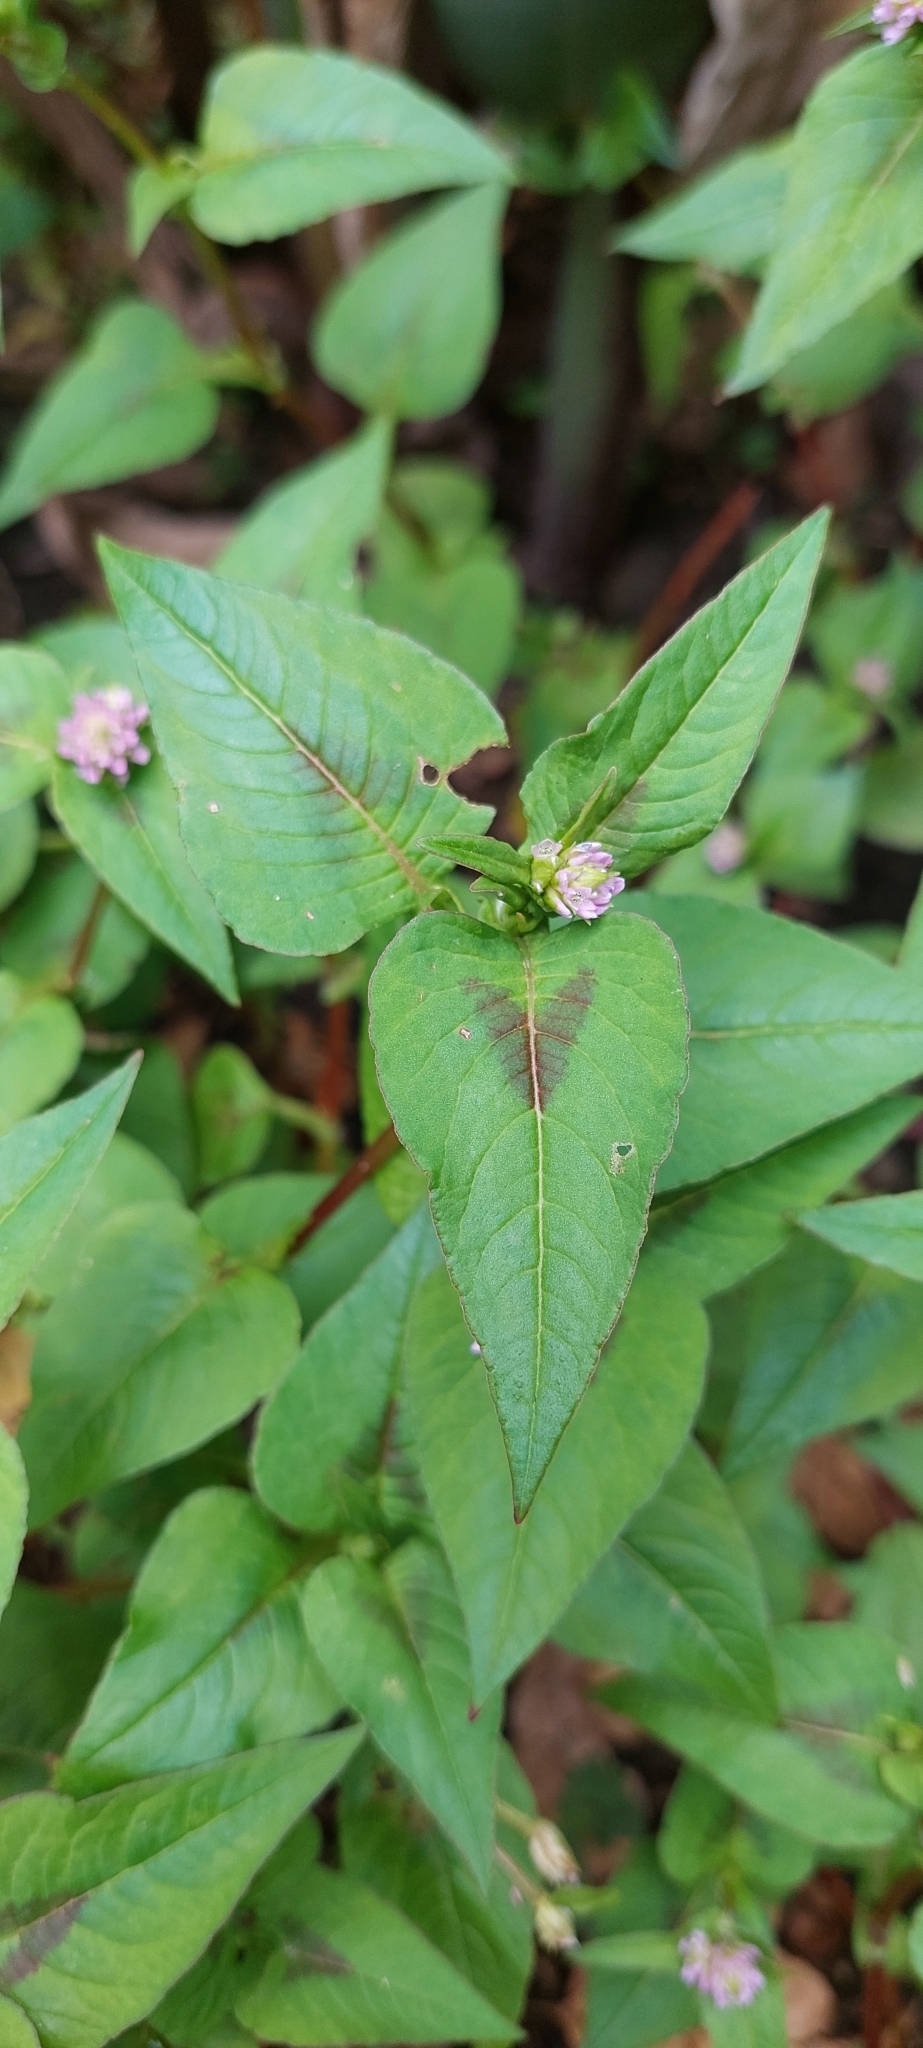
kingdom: Plantae
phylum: Tracheophyta
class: Magnoliopsida
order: Caryophyllales
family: Polygonaceae
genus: Persicaria
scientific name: Persicaria nepalensis
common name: Nepal persicaria
